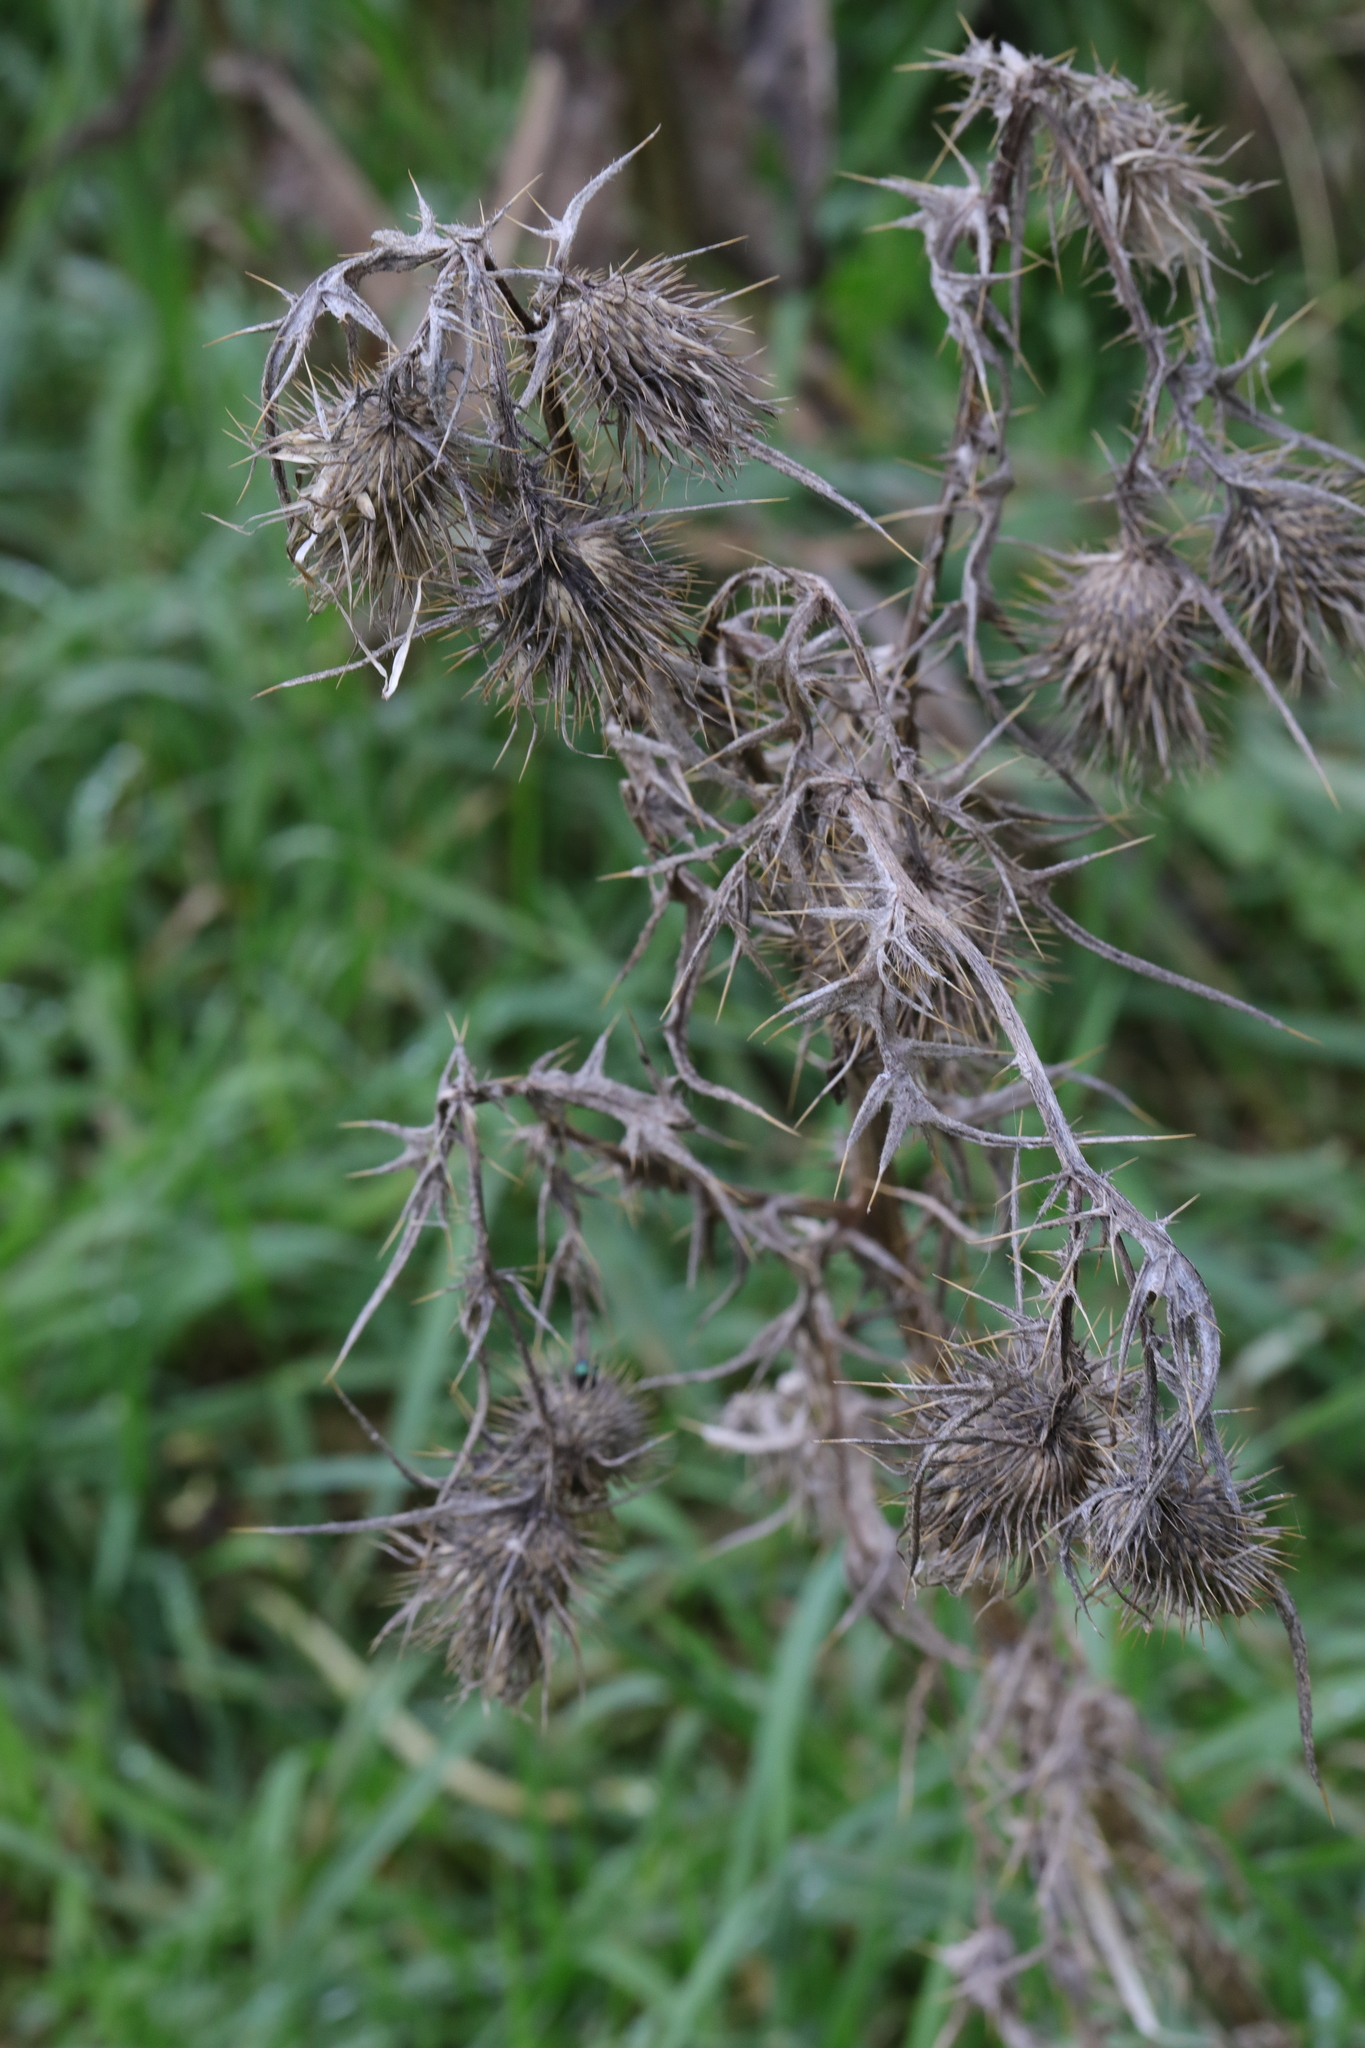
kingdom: Plantae
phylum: Tracheophyta
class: Magnoliopsida
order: Asterales
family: Asteraceae
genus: Cirsium
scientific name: Cirsium vulgare
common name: Bull thistle
